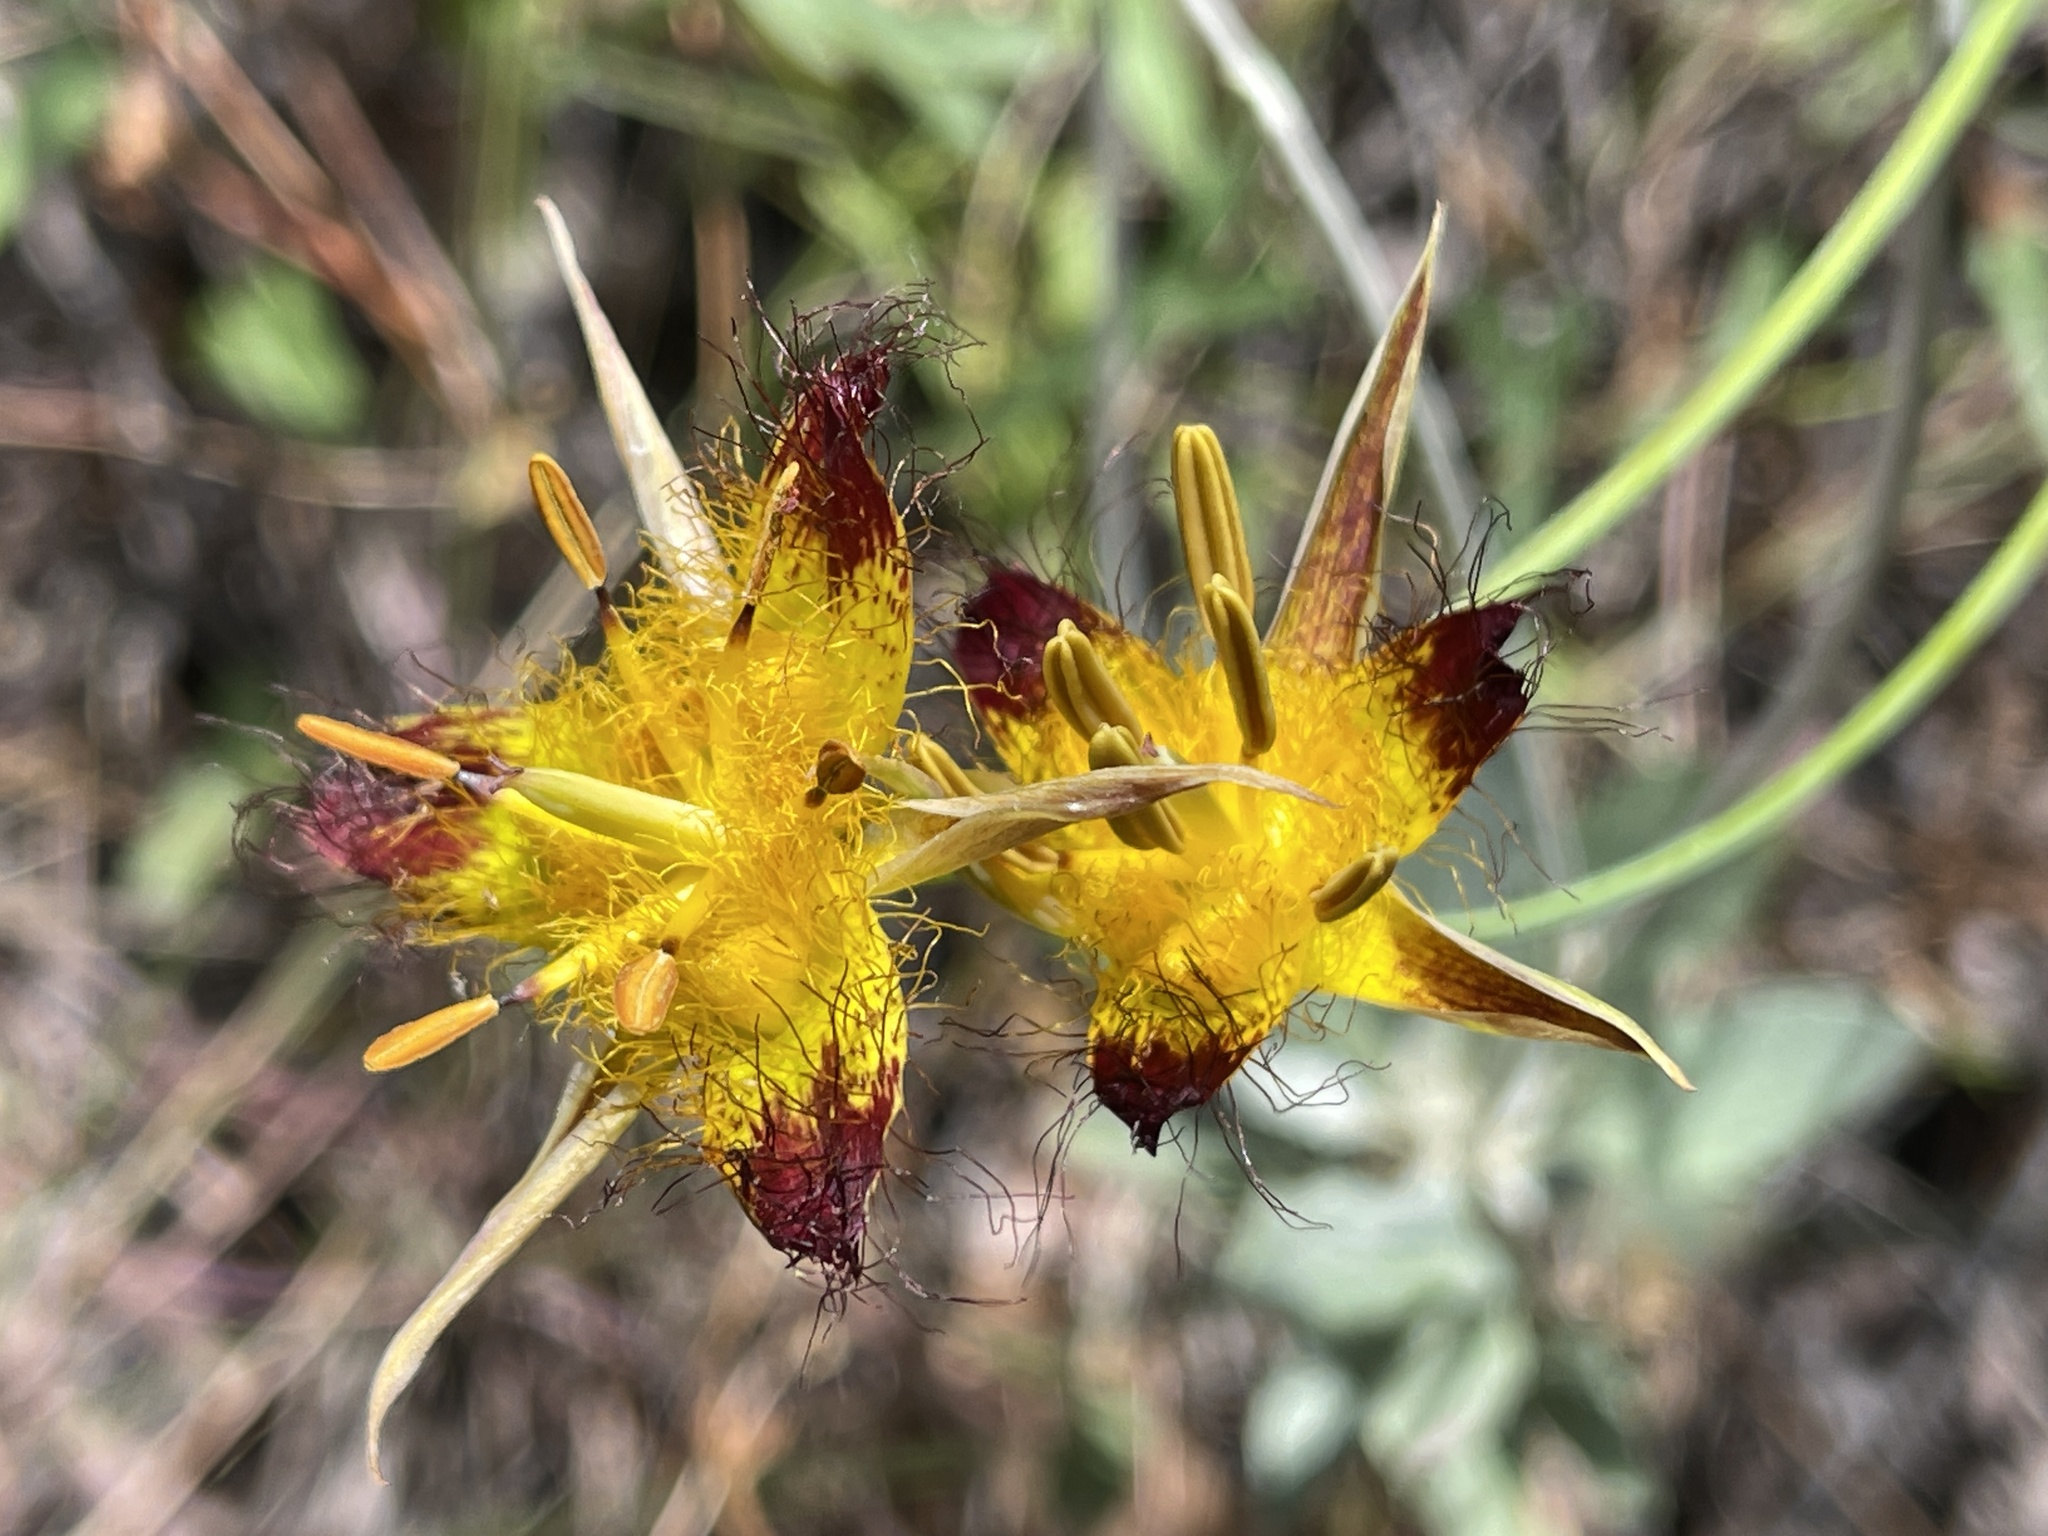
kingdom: Plantae
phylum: Tracheophyta
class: Liliopsida
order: Liliales
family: Liliaceae
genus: Calochortus
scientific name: Calochortus obispoensis
